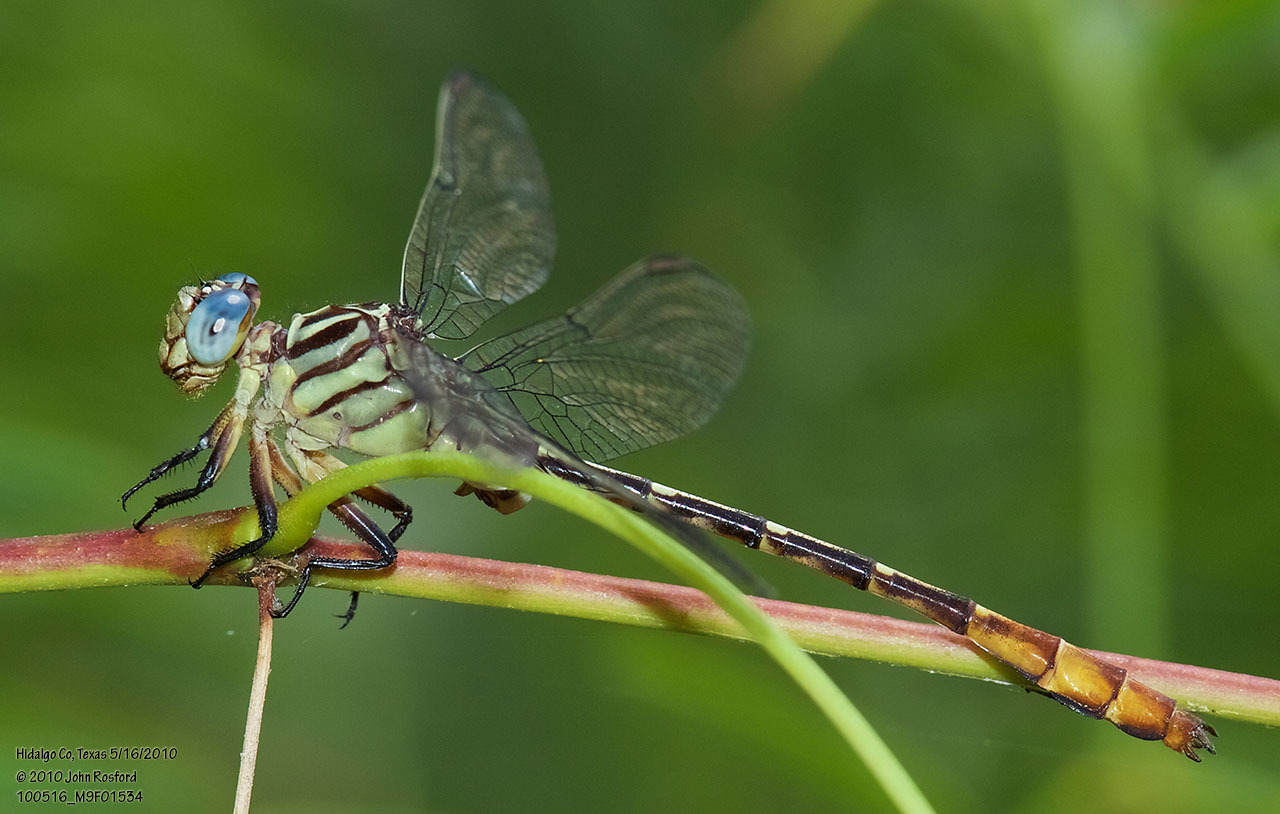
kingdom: Animalia
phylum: Arthropoda
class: Insecta
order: Odonata
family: Gomphidae
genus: Stylurus
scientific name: Stylurus plagiatus
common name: Russet-tipped clubtail
